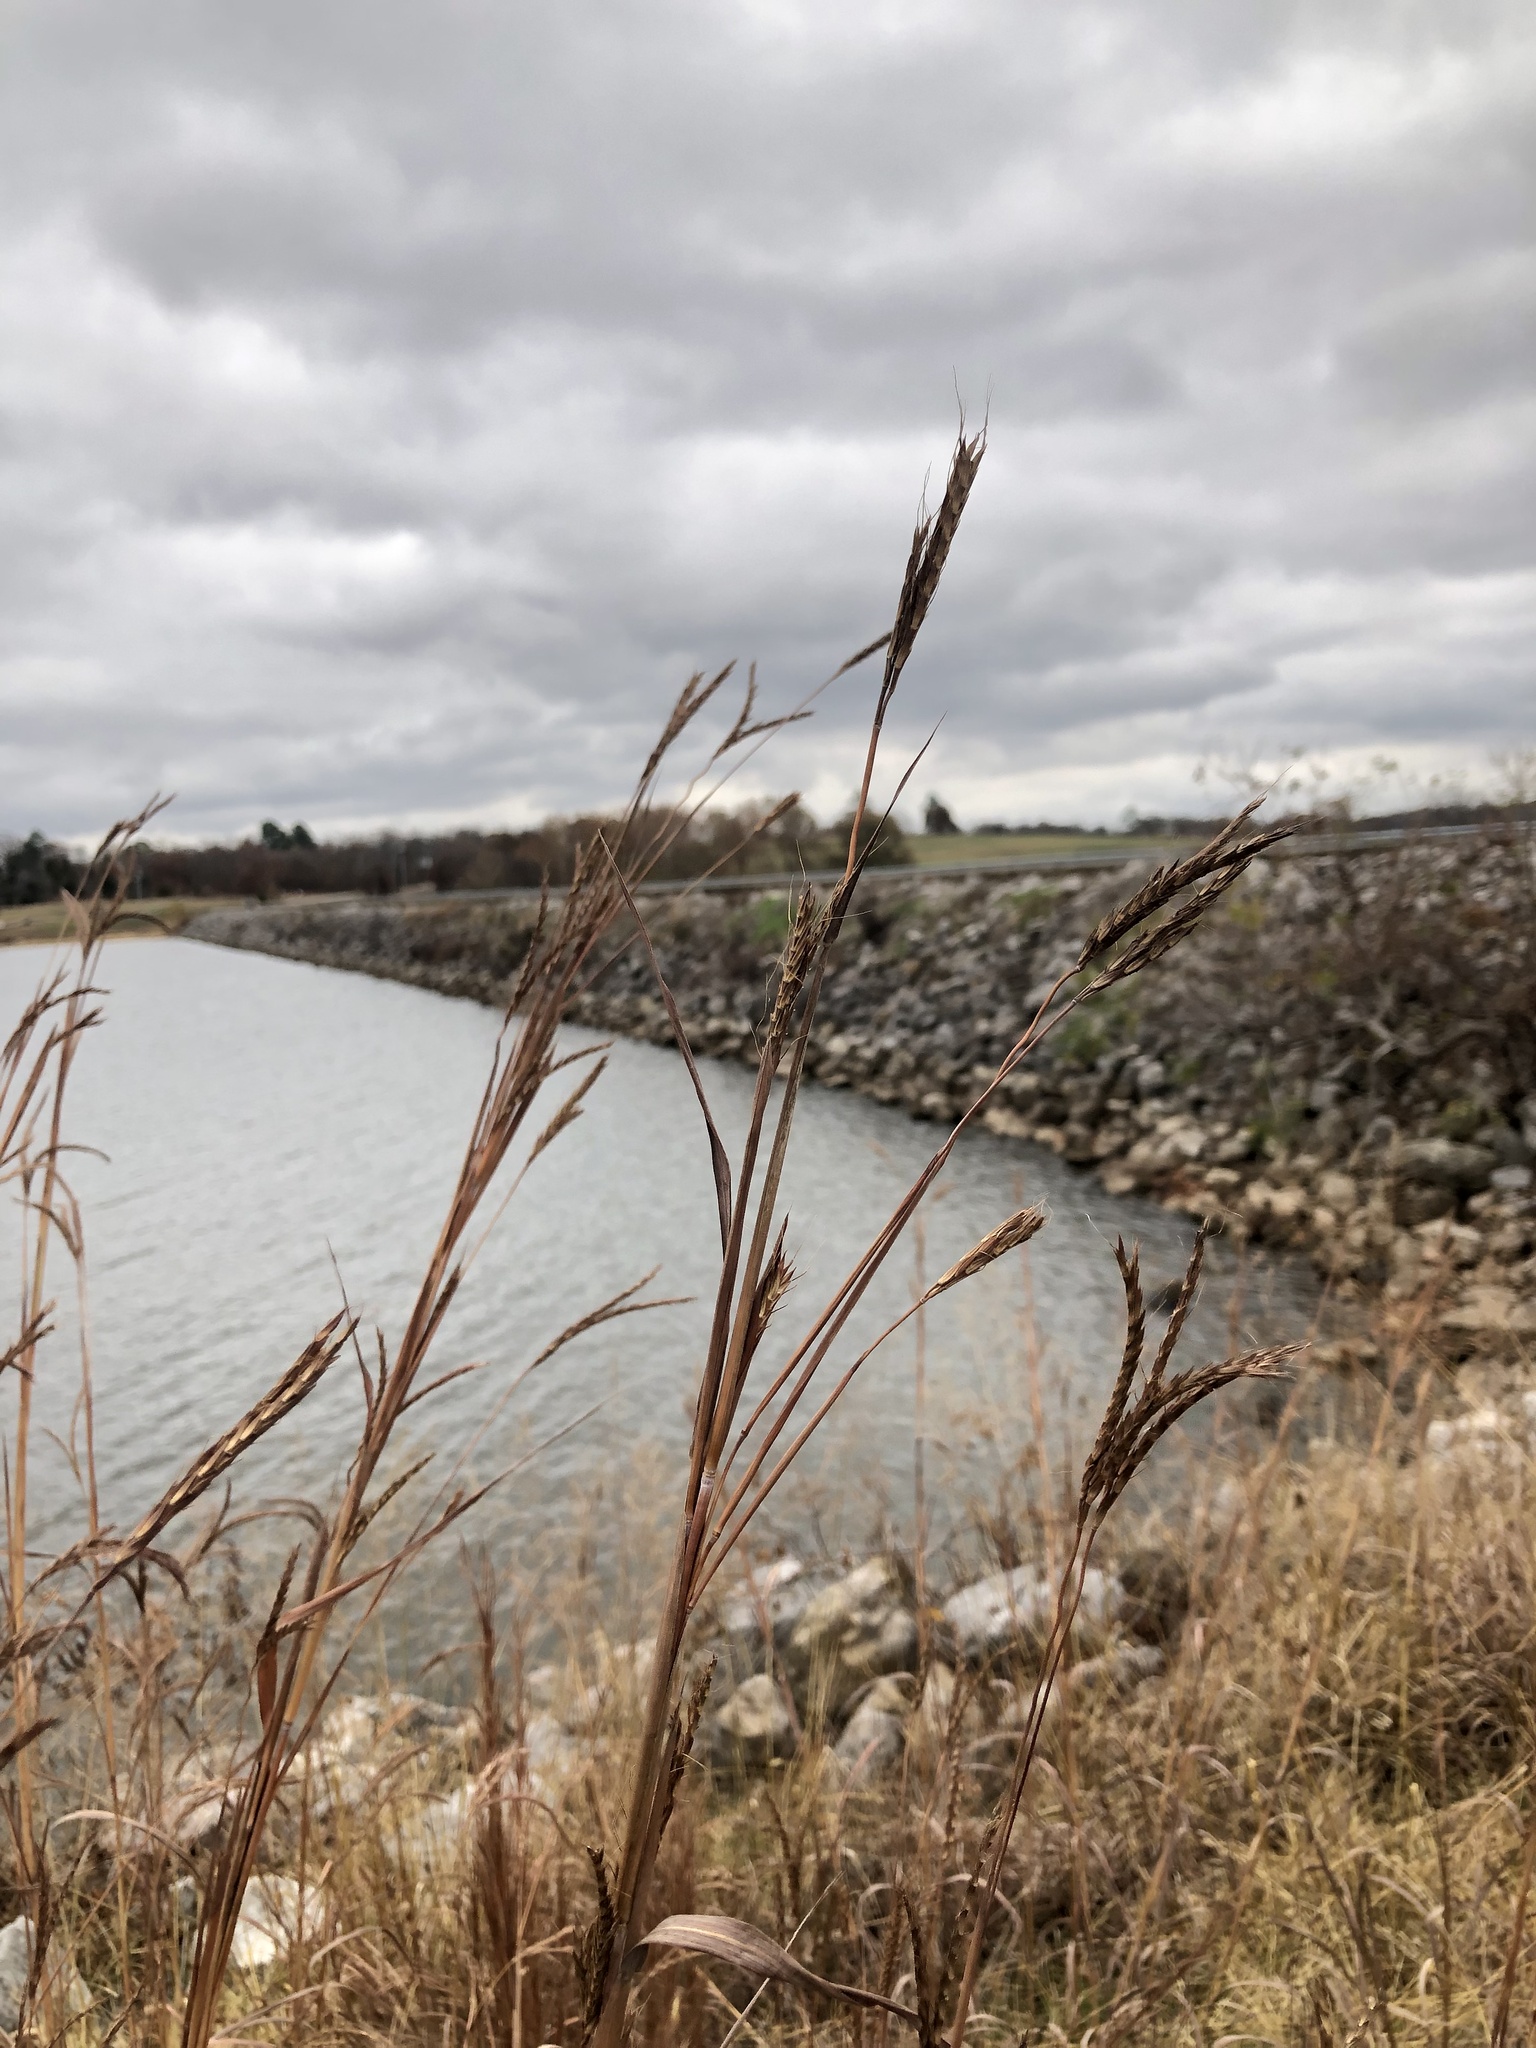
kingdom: Plantae
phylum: Tracheophyta
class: Liliopsida
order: Poales
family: Poaceae
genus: Andropogon
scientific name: Andropogon gerardi
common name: Big bluestem
